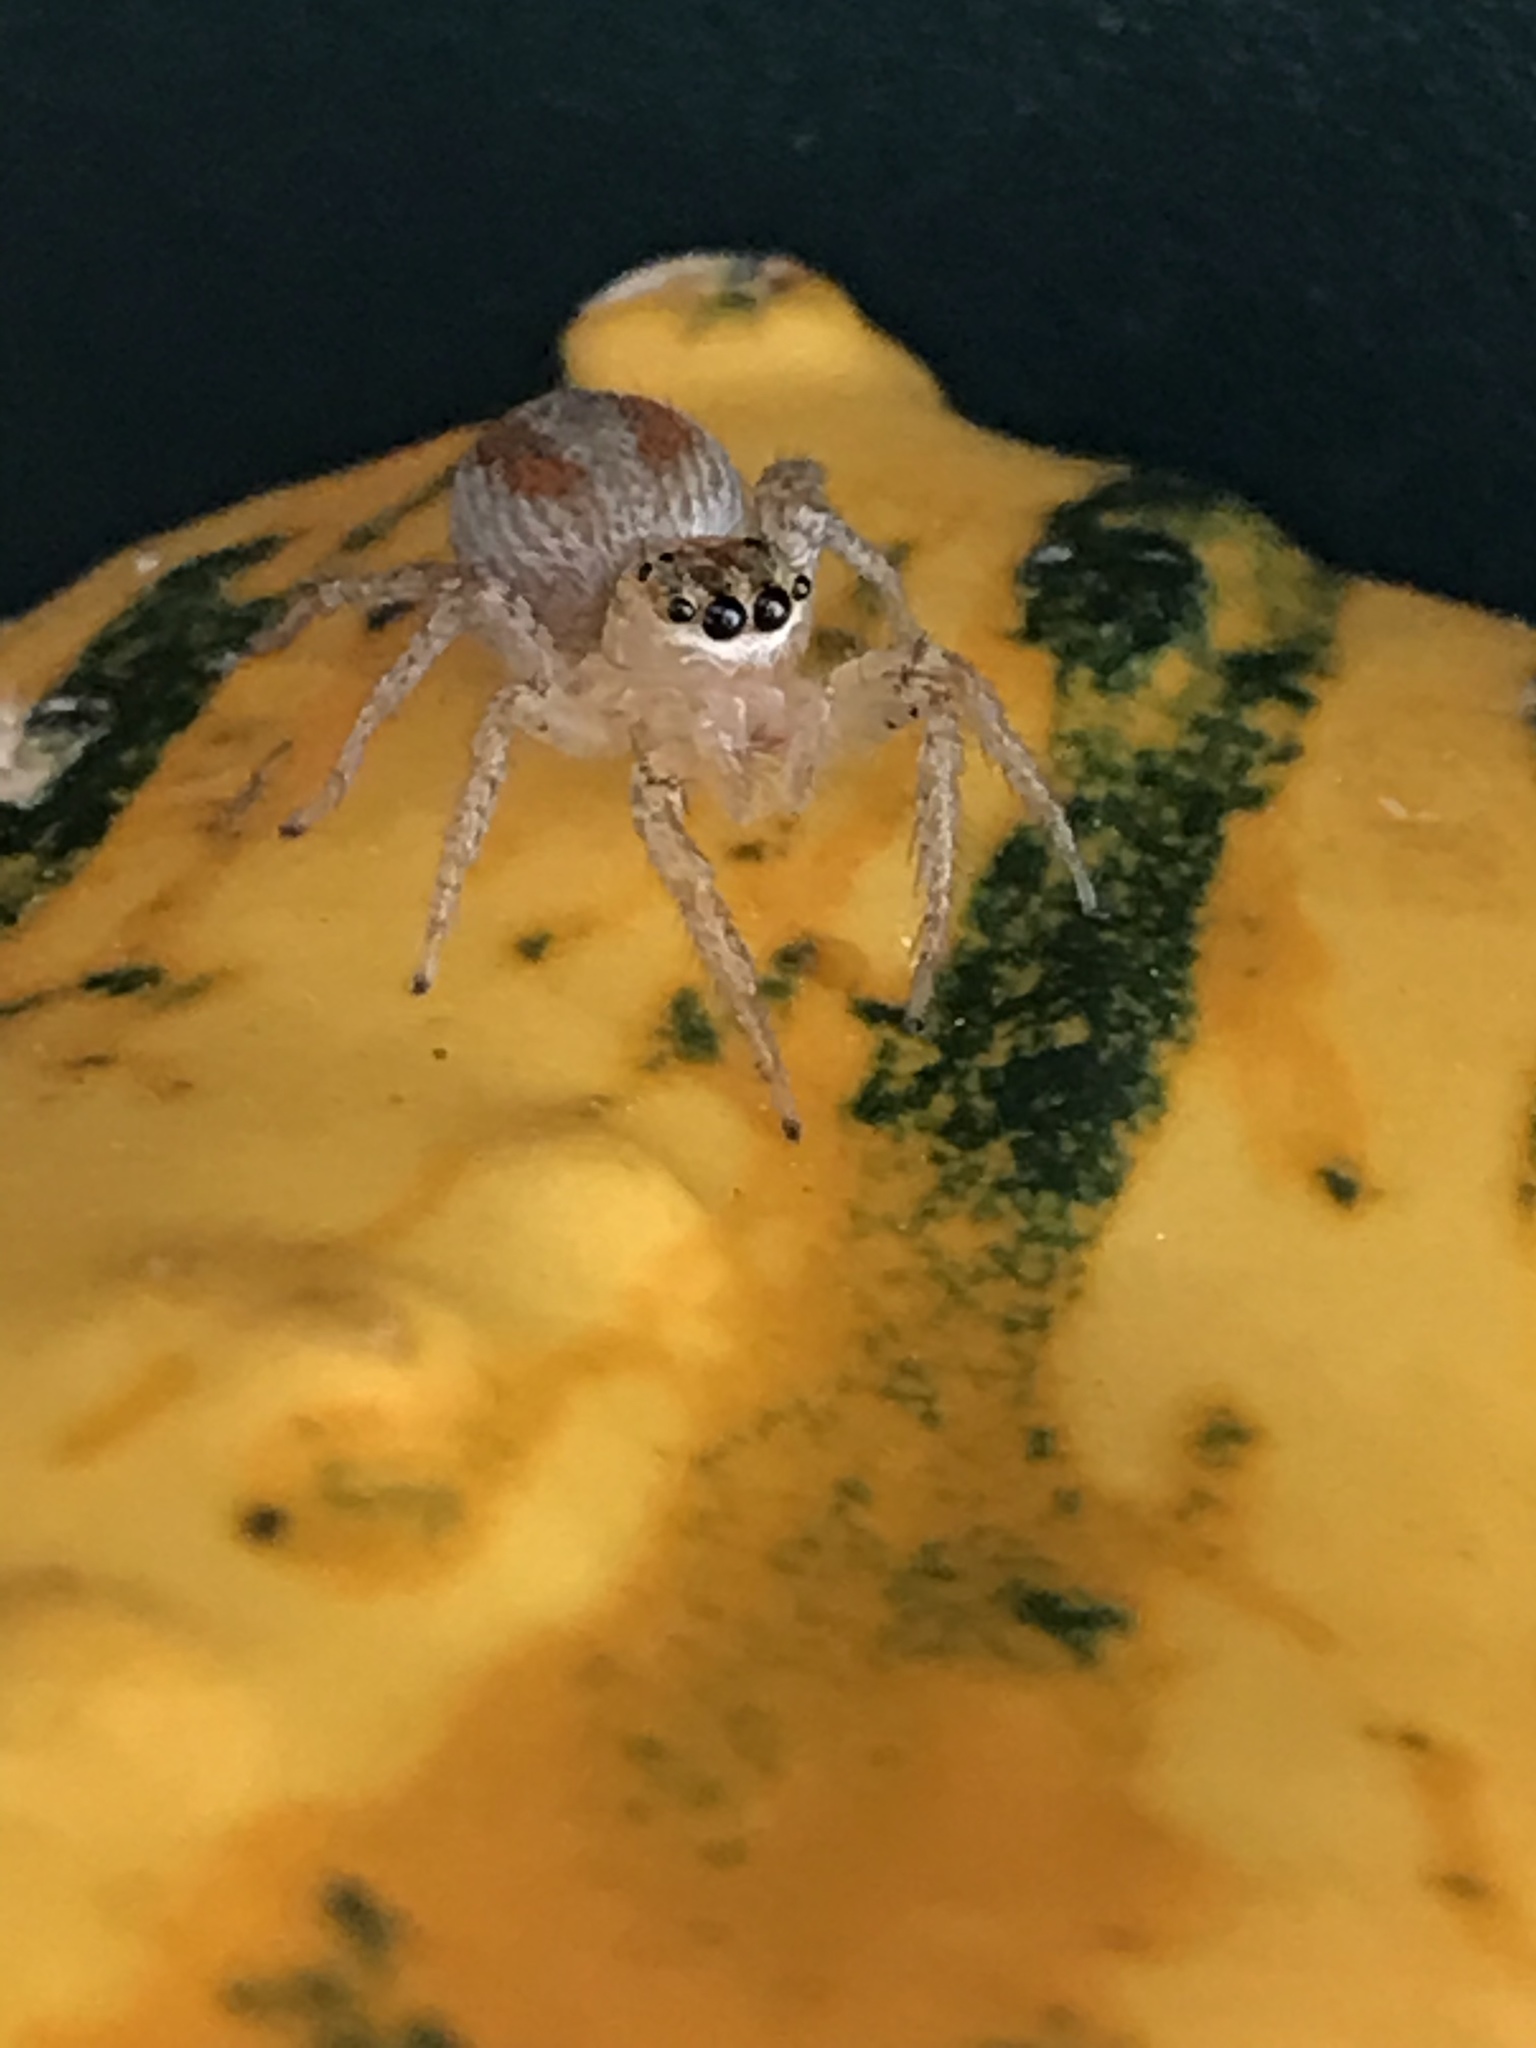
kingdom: Animalia
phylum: Arthropoda
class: Arachnida
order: Araneae
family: Salticidae
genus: Maevia
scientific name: Maevia inclemens
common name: Dimorphic jumper
